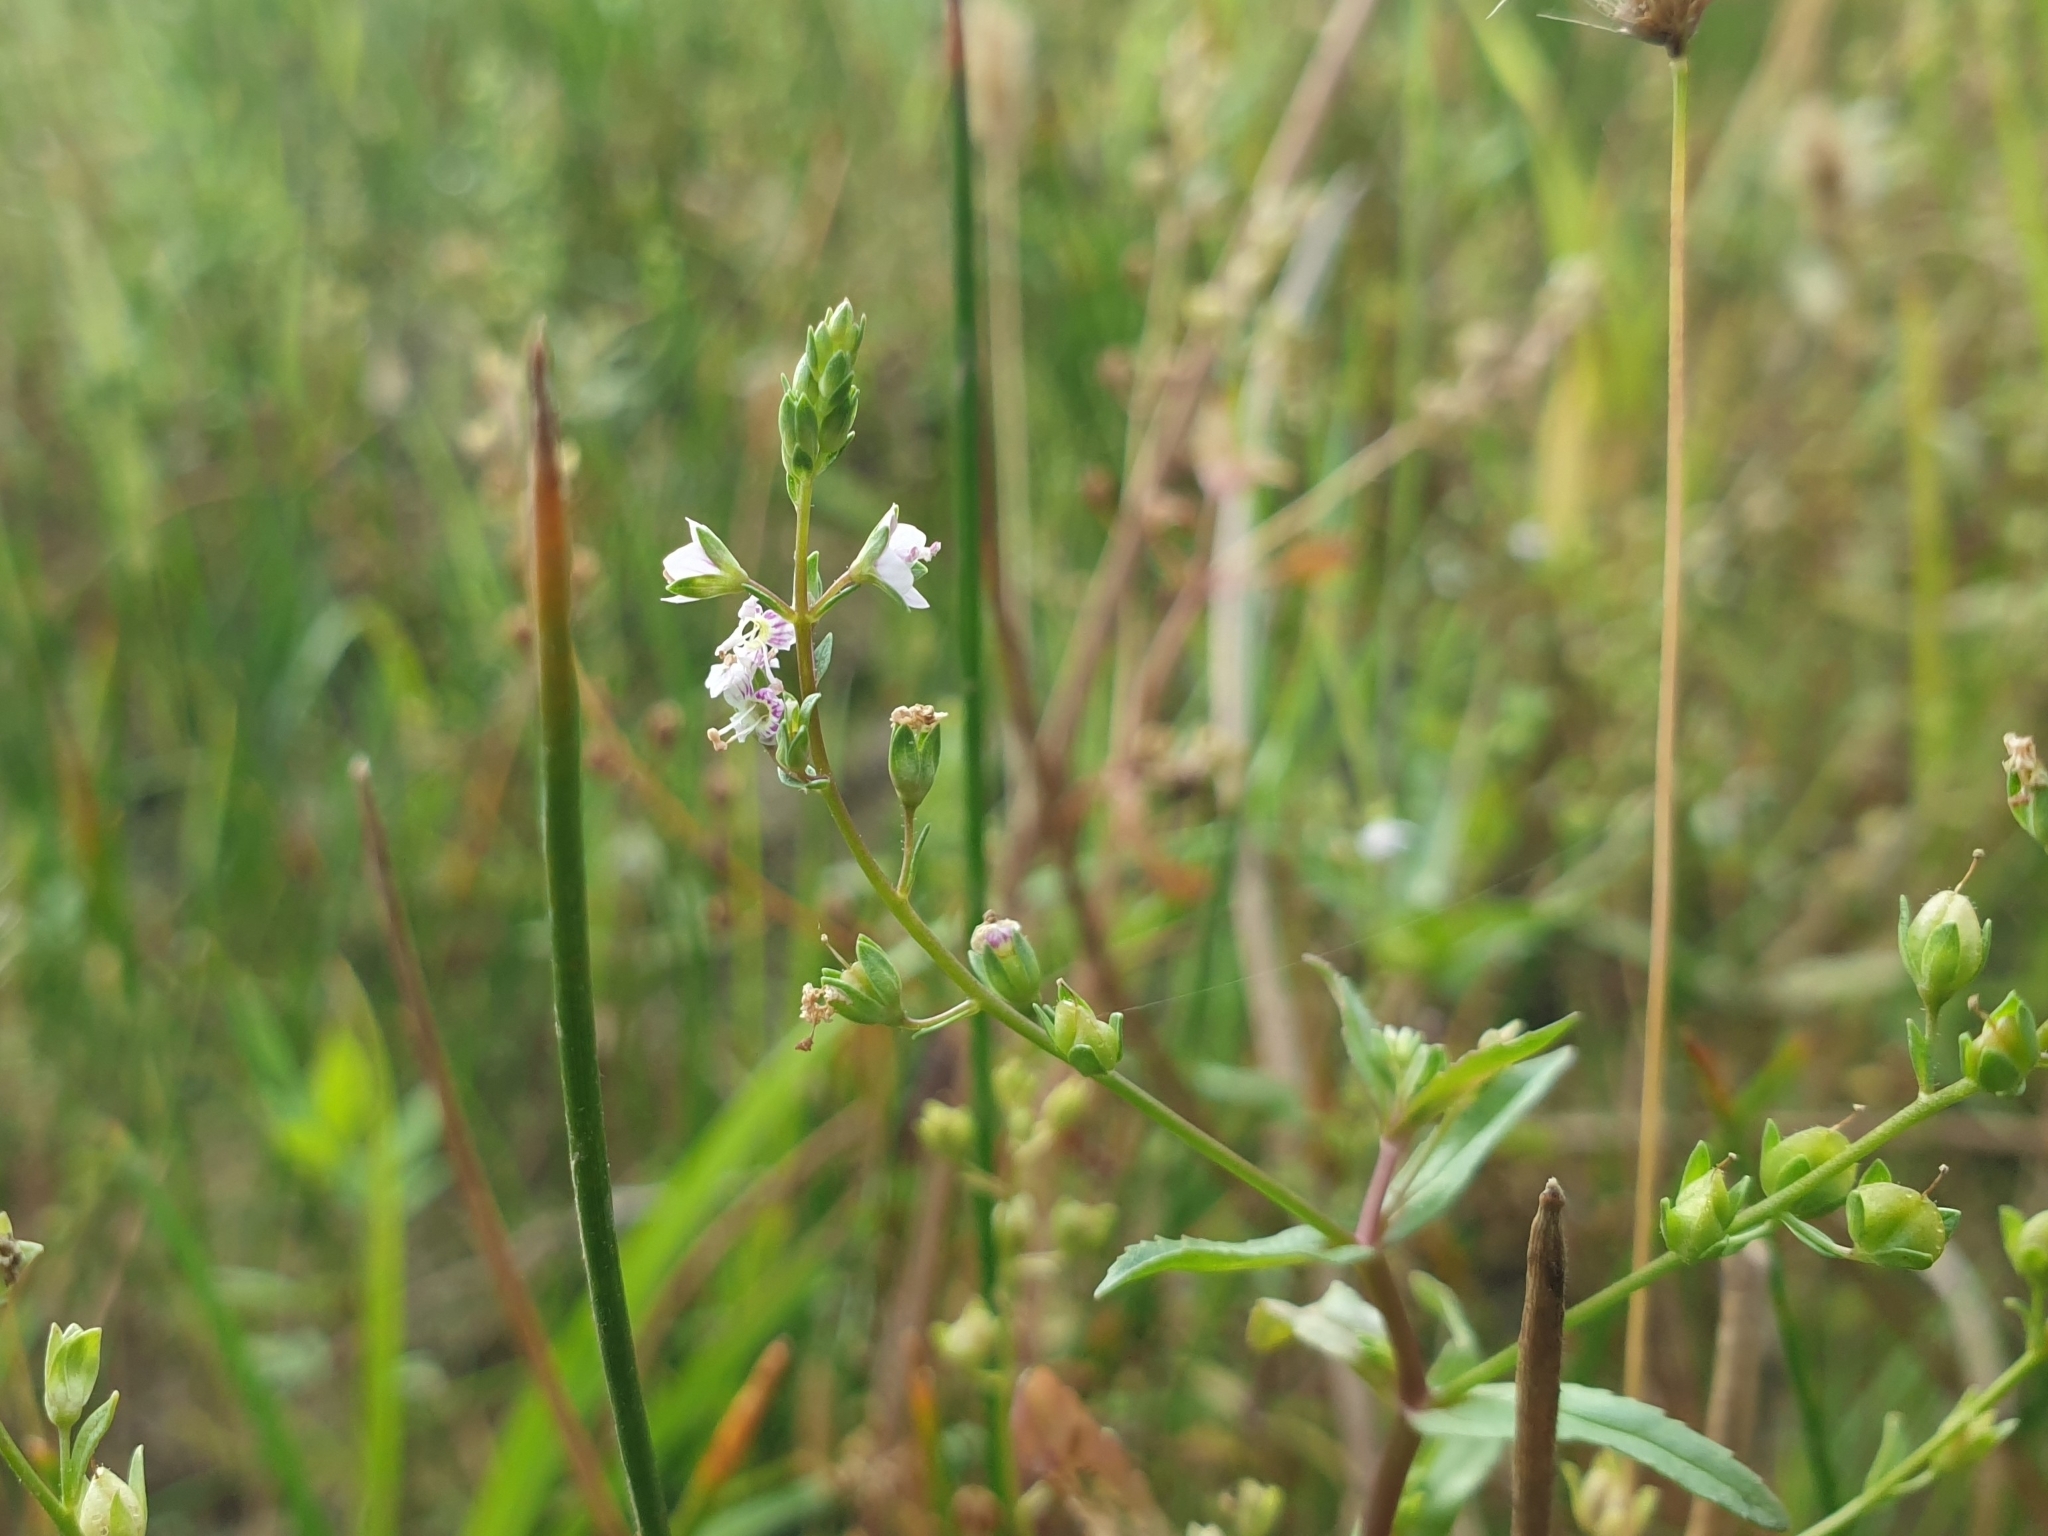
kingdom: Plantae
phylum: Tracheophyta
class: Magnoliopsida
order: Lamiales
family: Plantaginaceae
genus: Veronica
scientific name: Veronica anagallis-aquatica
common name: Water speedwell
